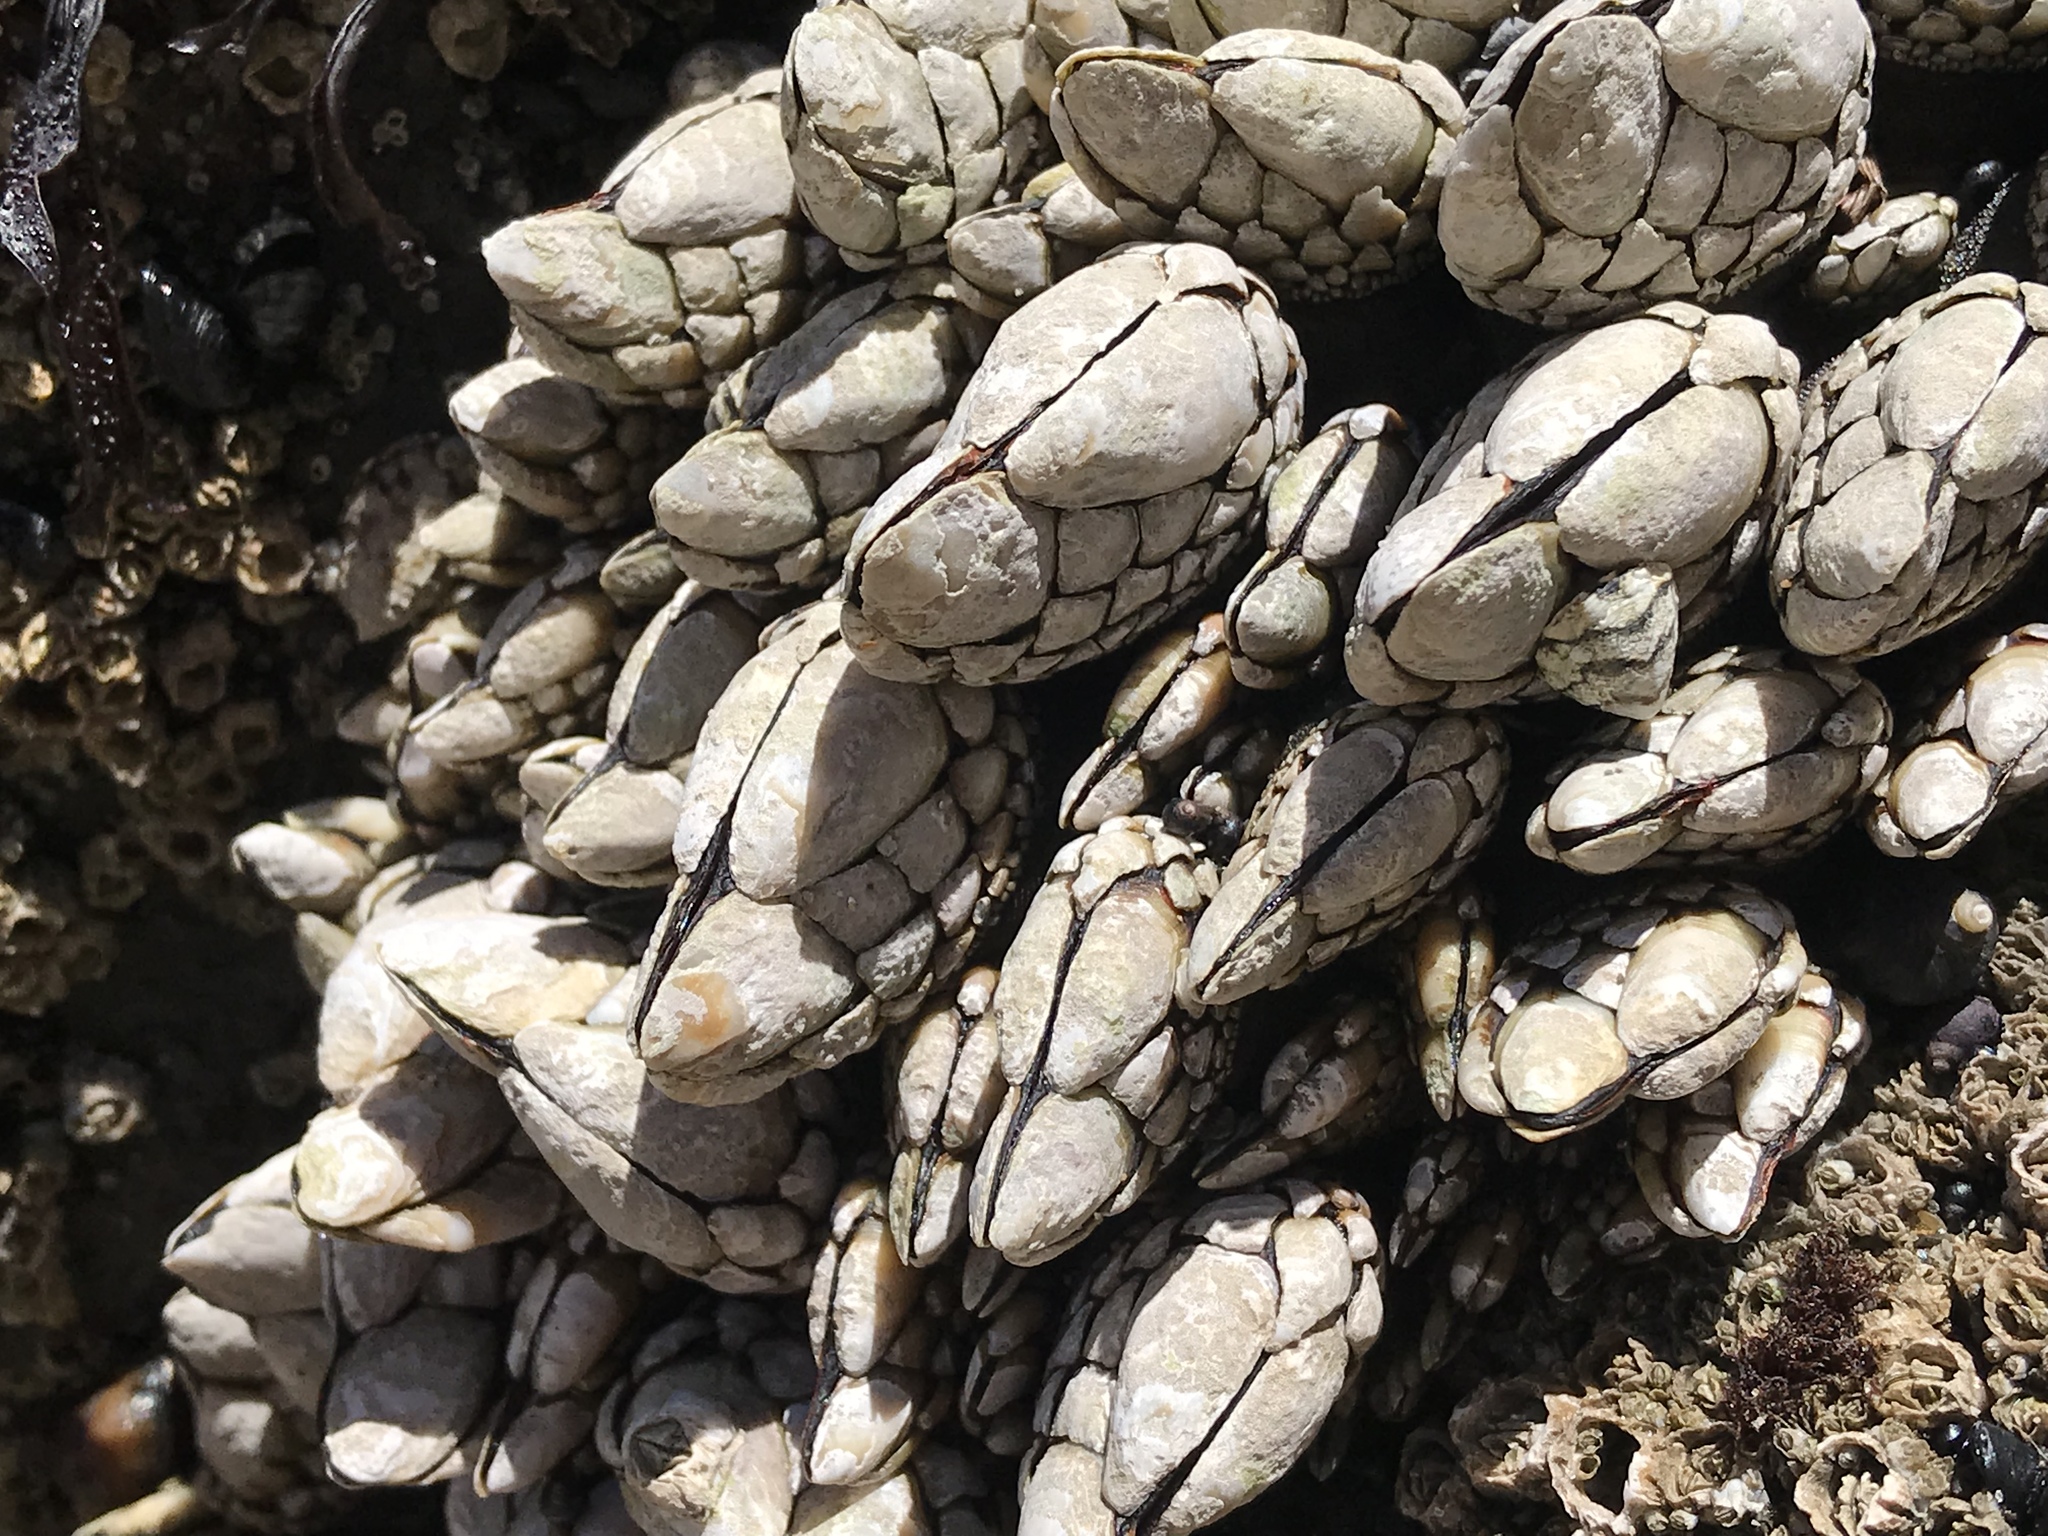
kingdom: Animalia
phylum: Arthropoda
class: Maxillopoda
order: Pedunculata
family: Pollicipedidae
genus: Pollicipes
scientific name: Pollicipes polymerus
